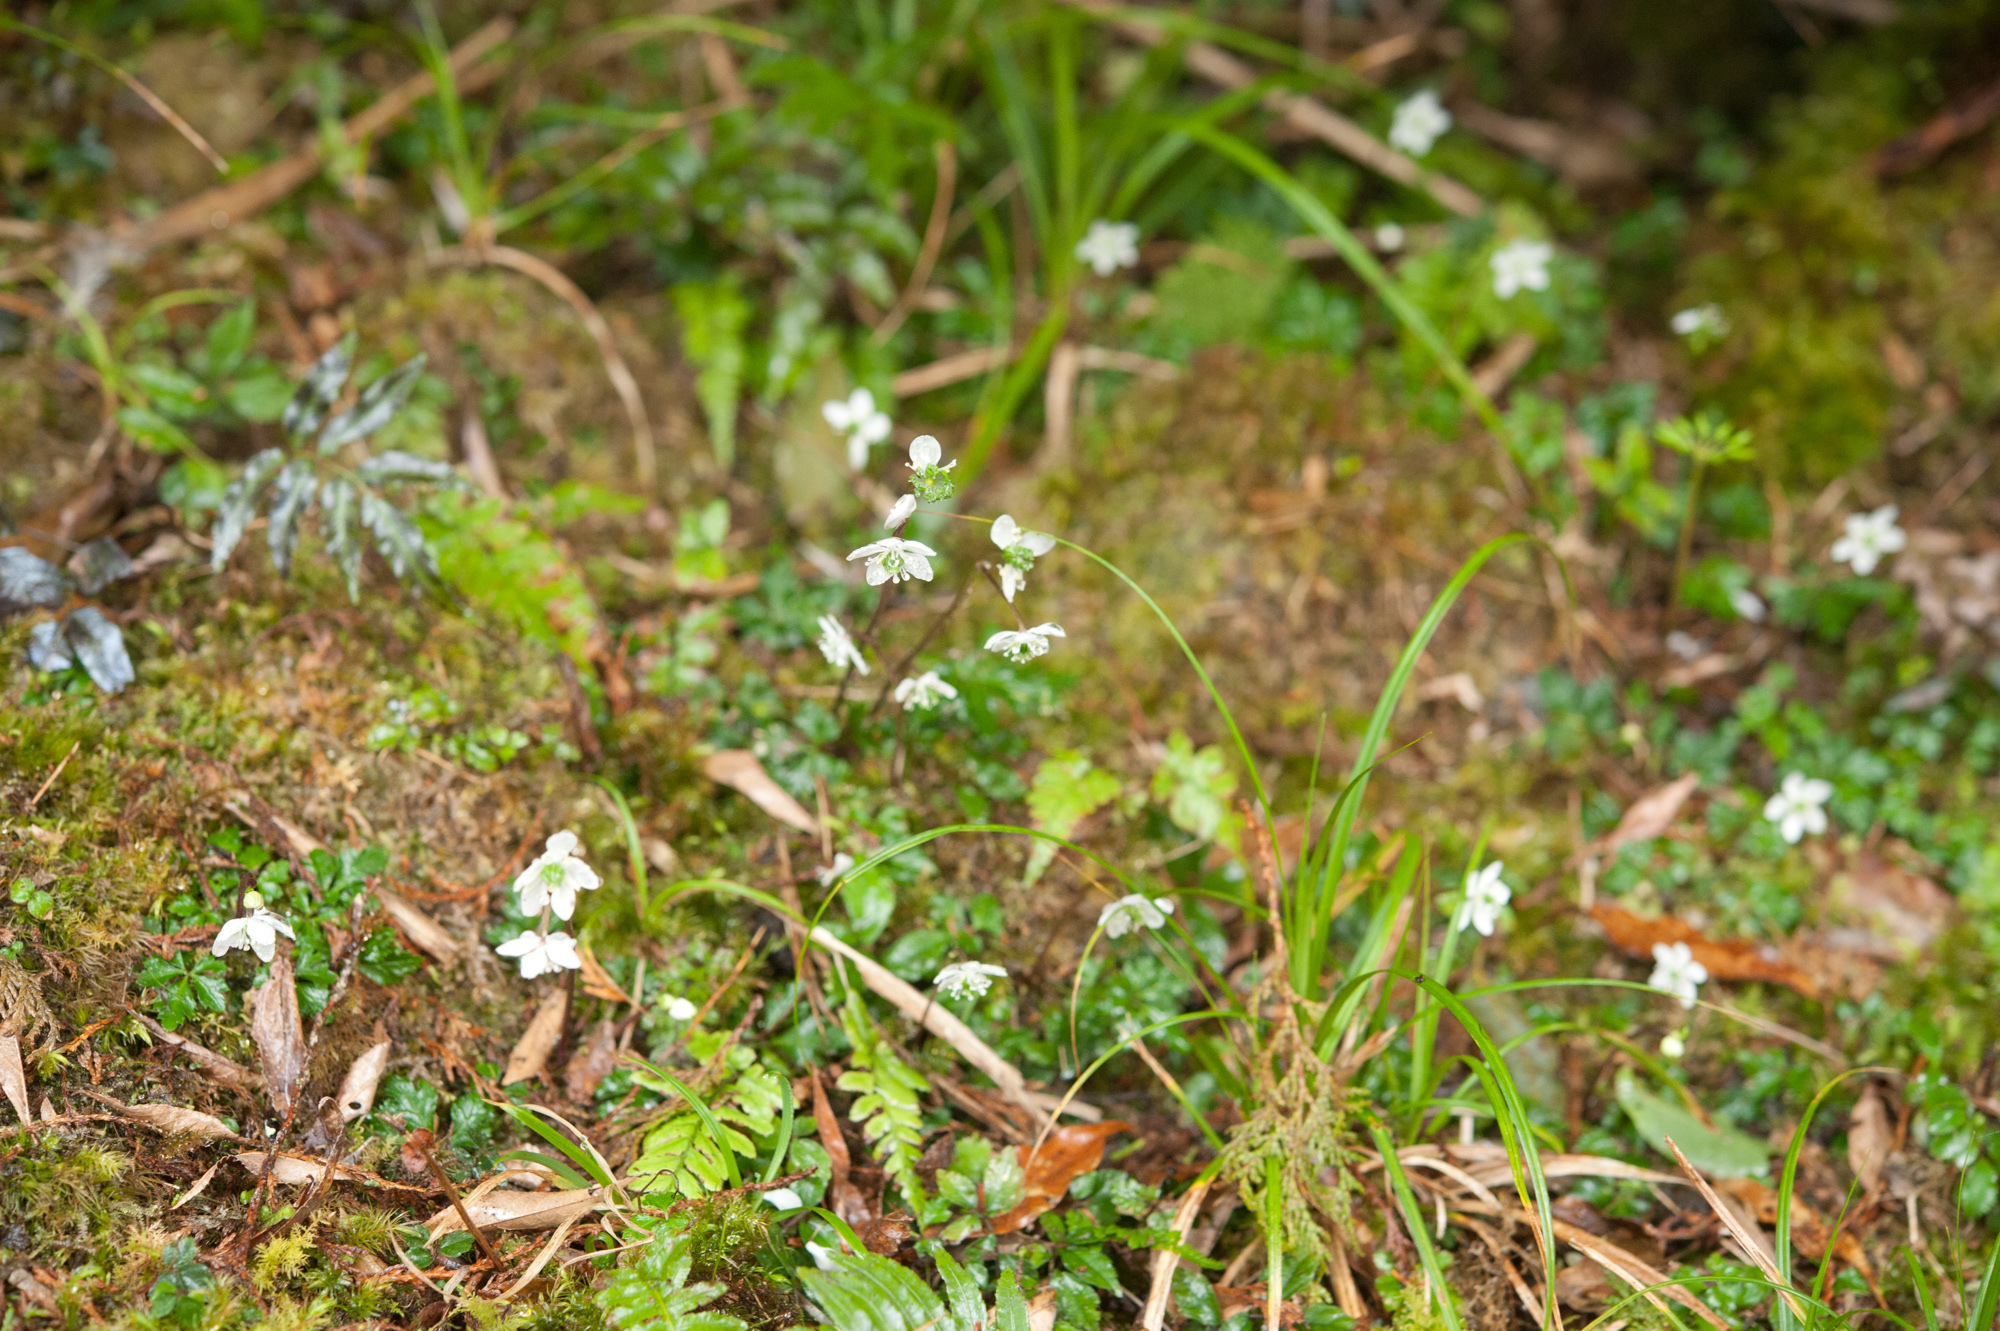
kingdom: Plantae
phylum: Tracheophyta
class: Magnoliopsida
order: Ranunculales
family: Ranunculaceae
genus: Coptis
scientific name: Coptis quinquefolia
